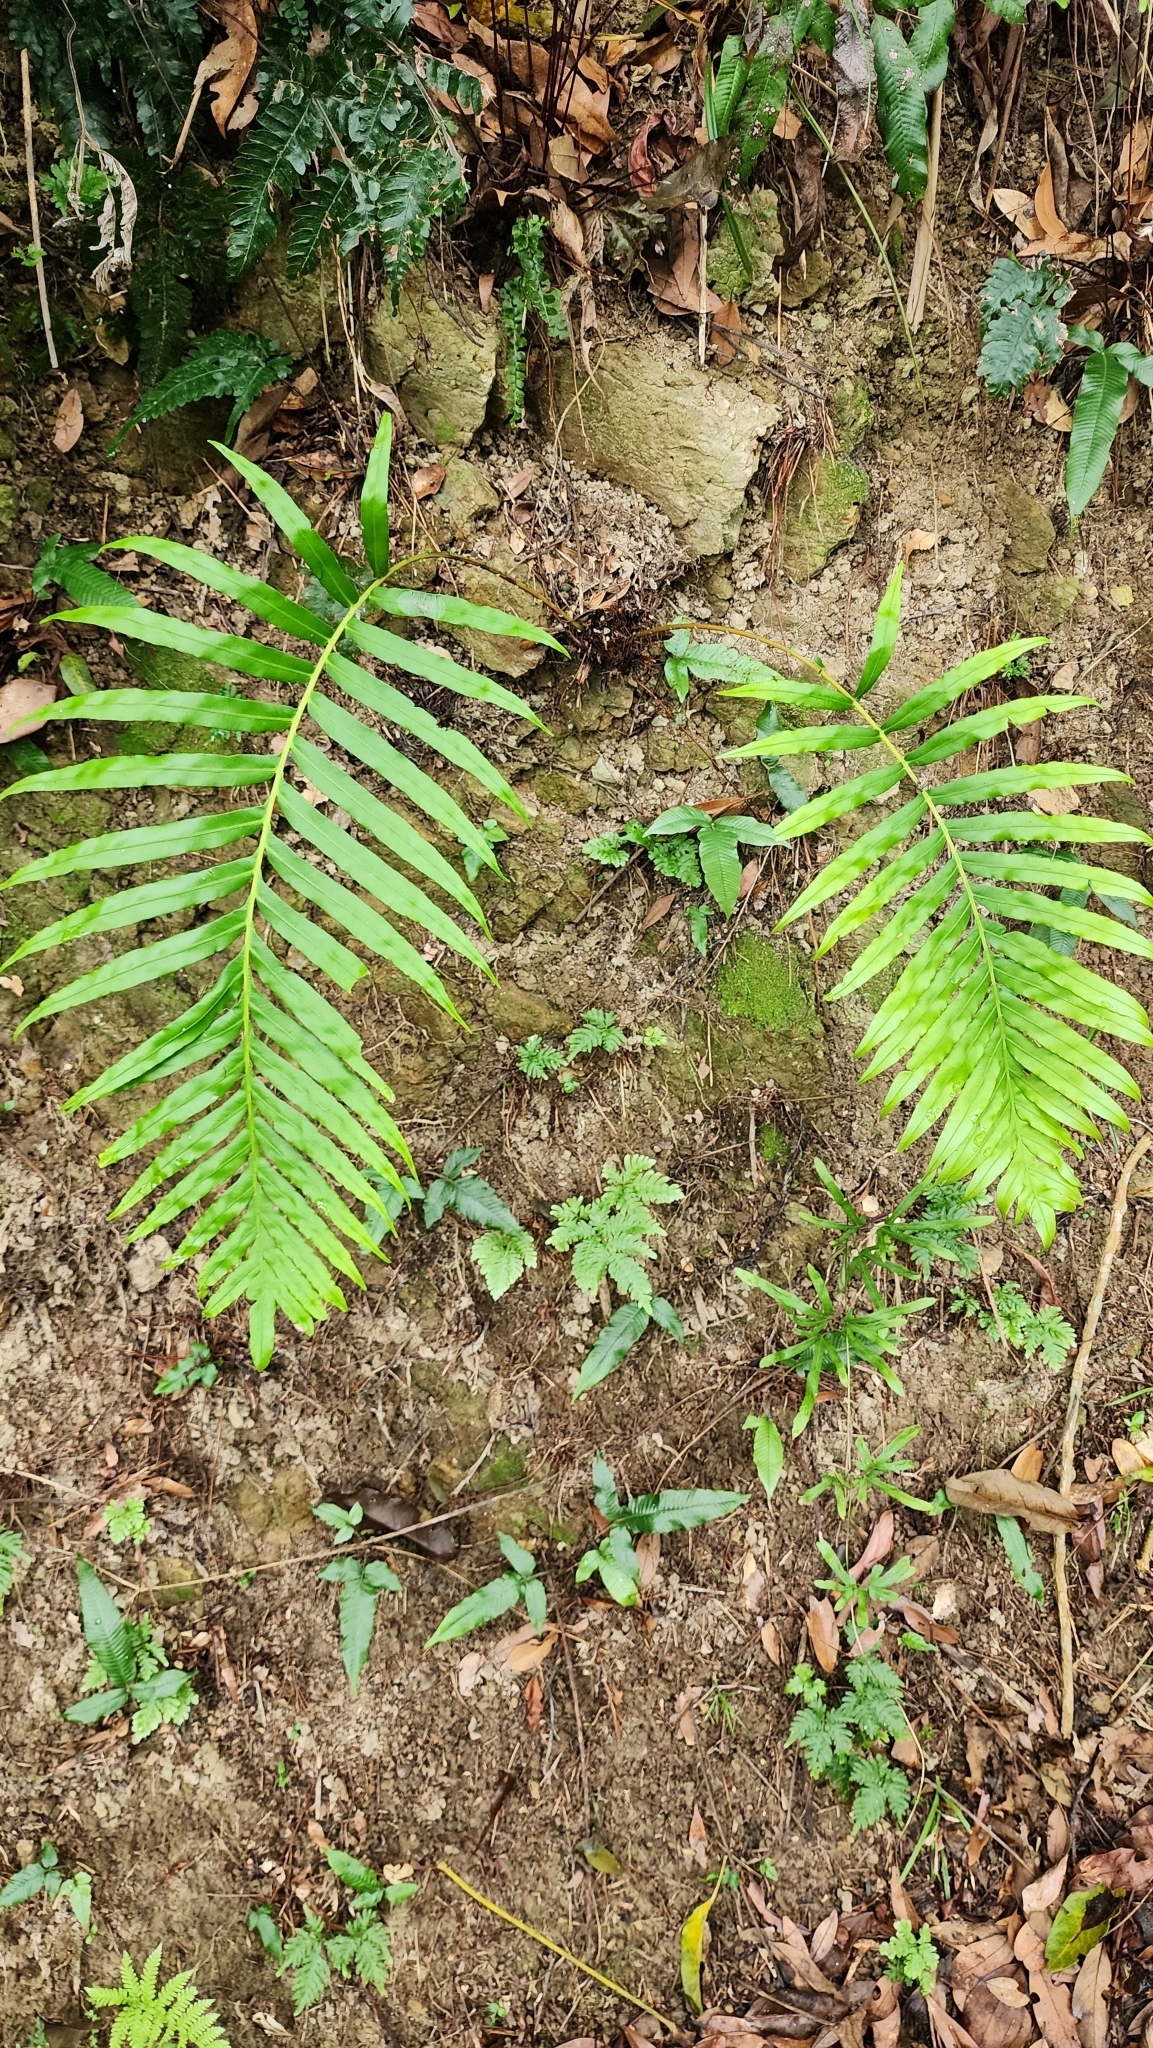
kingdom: Plantae
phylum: Tracheophyta
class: Polypodiopsida
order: Polypodiales
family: Blechnaceae
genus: Blechnopsis
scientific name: Blechnopsis orientalis
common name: Oriental blechnum
